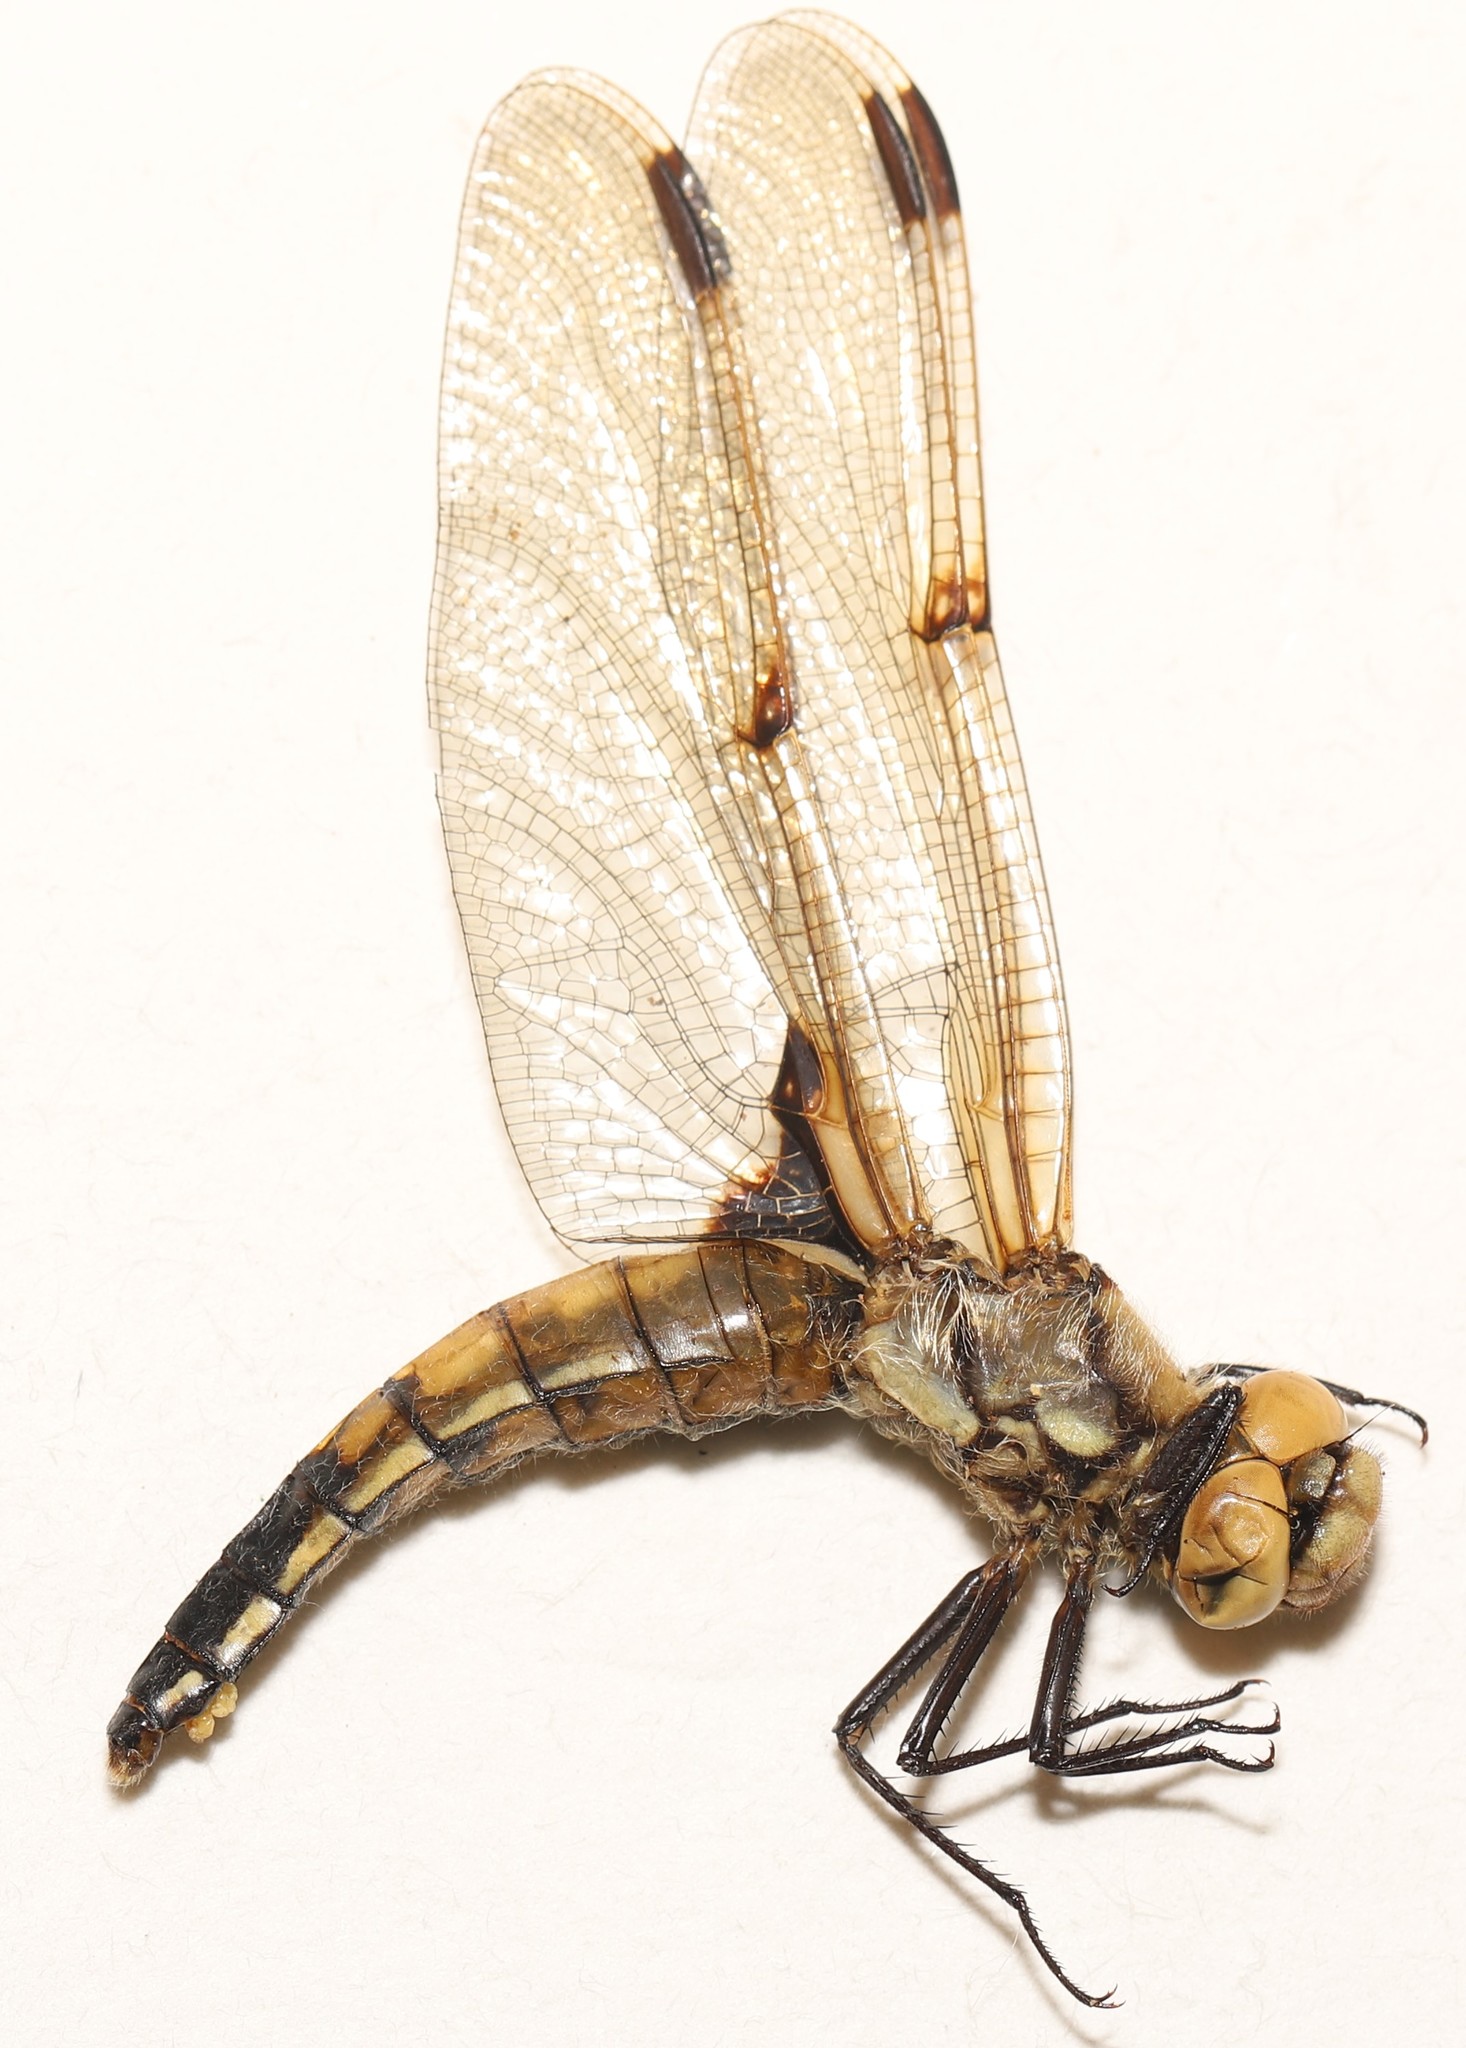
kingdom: Animalia
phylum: Arthropoda
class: Insecta
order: Odonata
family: Libellulidae
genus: Libellula
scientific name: Libellula quadrimaculata
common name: Four-spotted chaser
